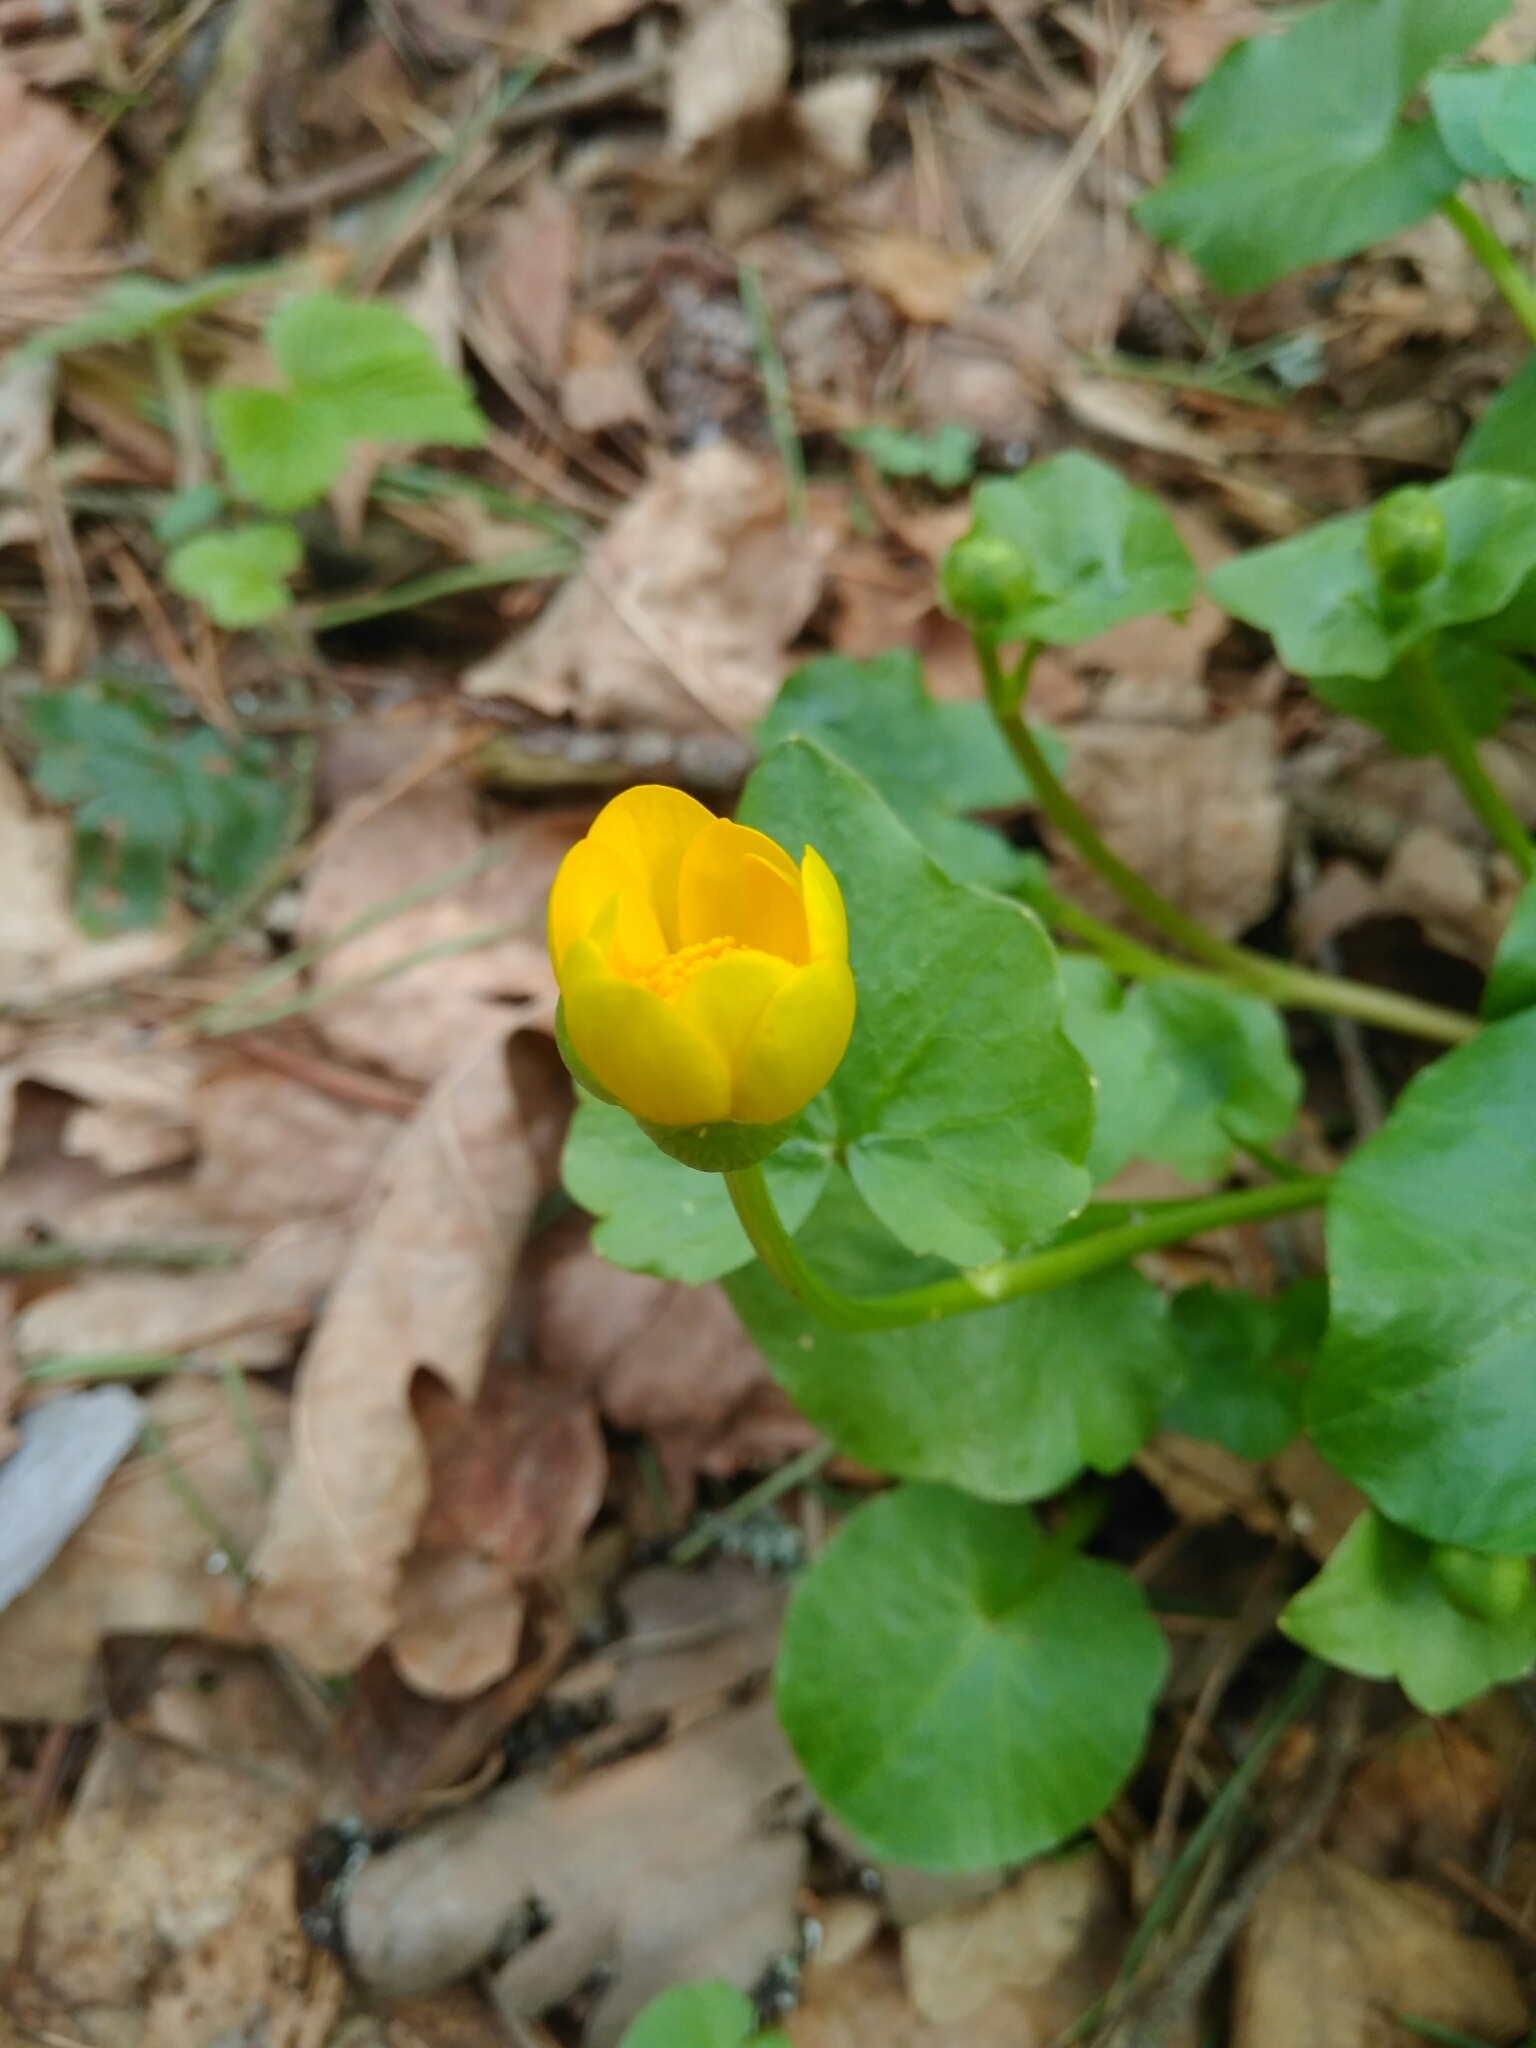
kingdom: Plantae
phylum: Tracheophyta
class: Magnoliopsida
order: Ranunculales
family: Ranunculaceae
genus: Ficaria
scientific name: Ficaria verna
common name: Lesser celandine
